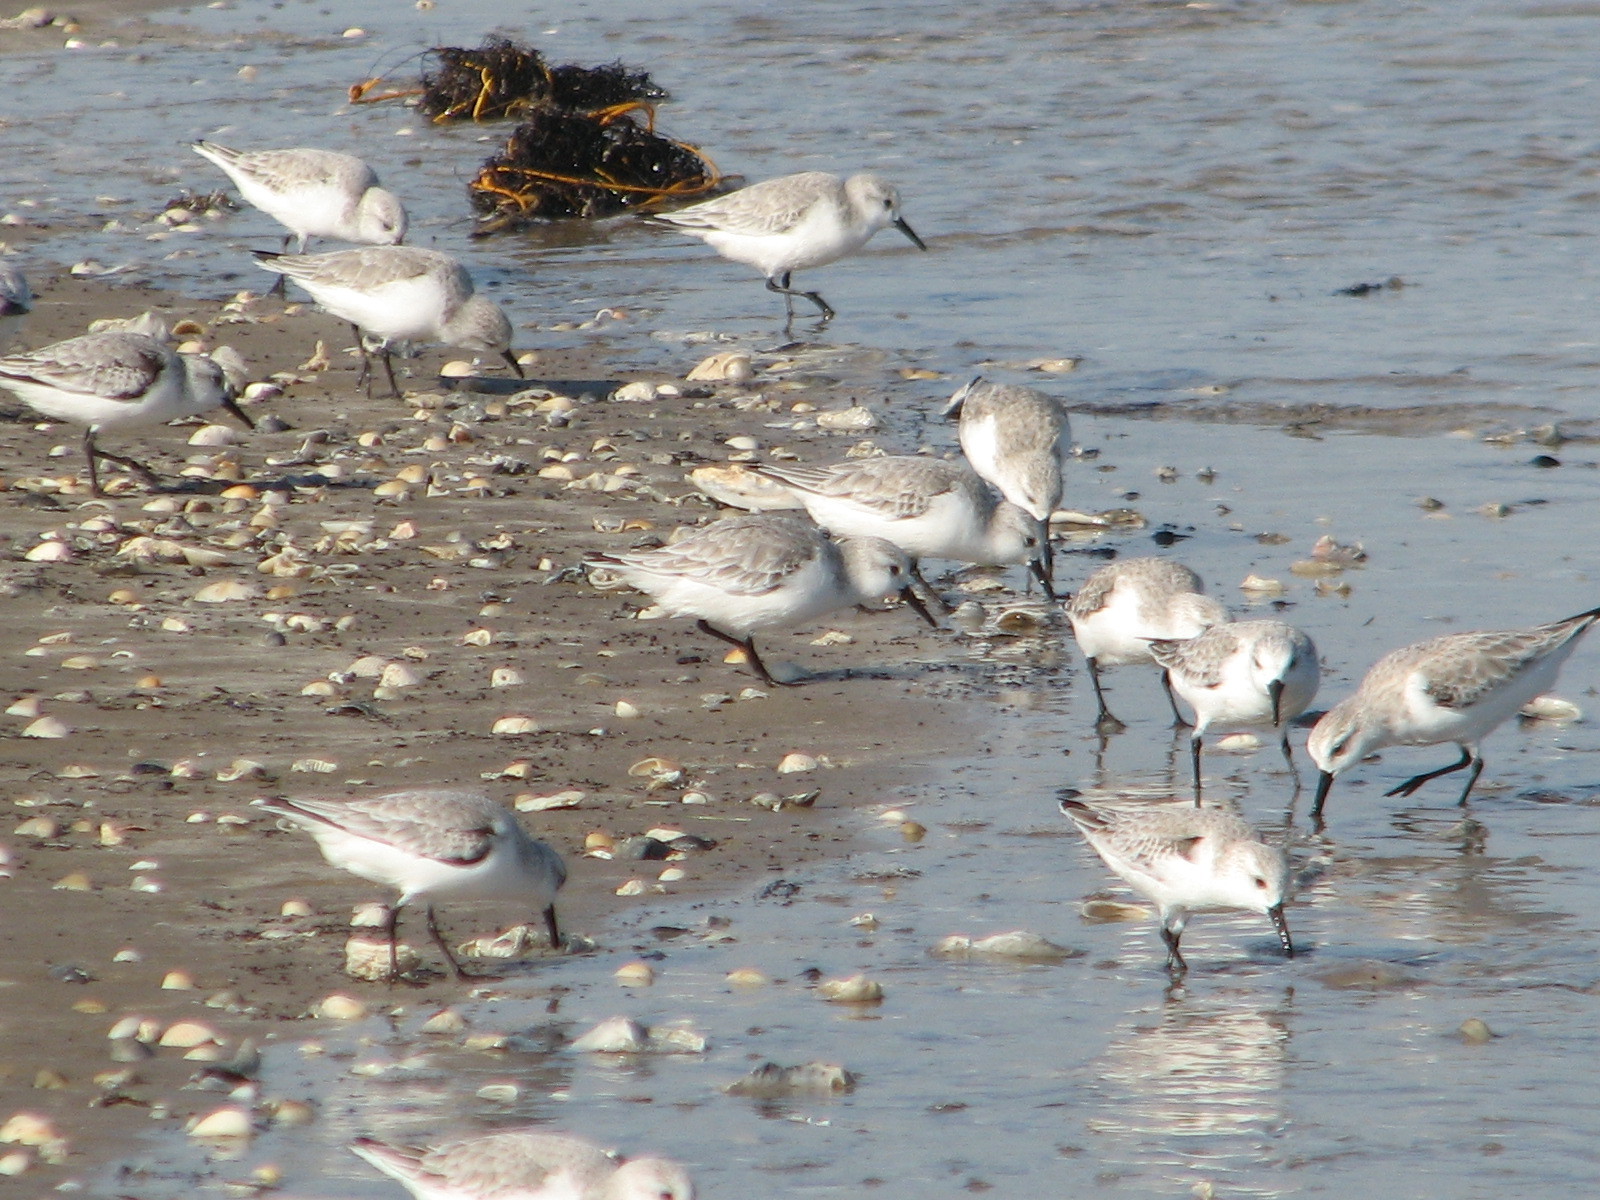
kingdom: Animalia
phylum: Chordata
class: Aves
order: Charadriiformes
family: Scolopacidae
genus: Calidris
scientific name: Calidris alba
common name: Sanderling
